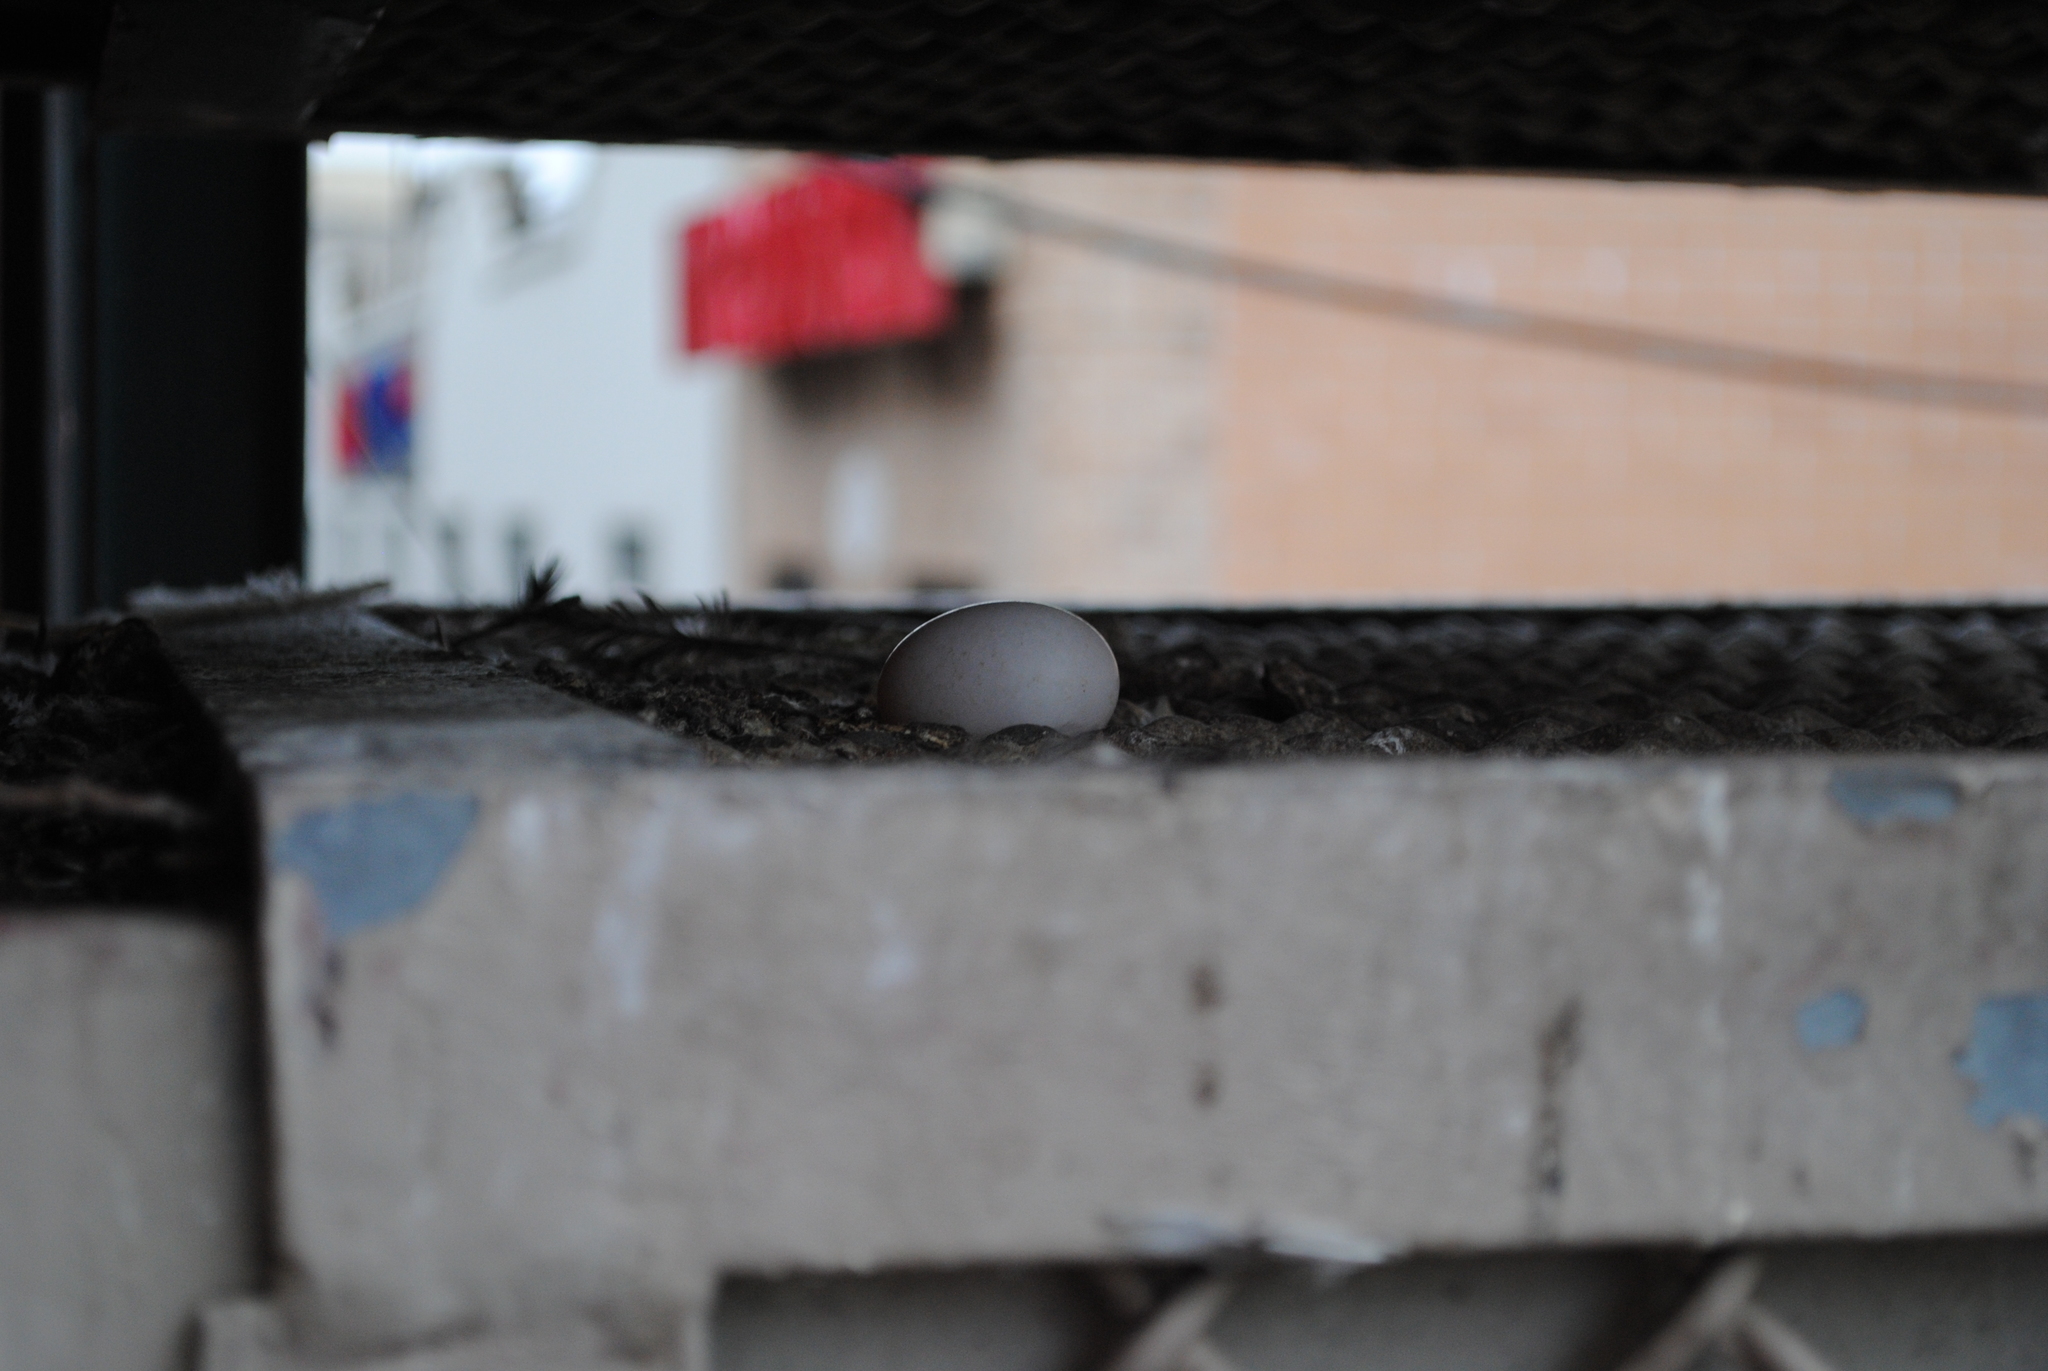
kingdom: Animalia
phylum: Chordata
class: Aves
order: Columbiformes
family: Columbidae
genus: Columba
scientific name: Columba livia
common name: Rock pigeon
